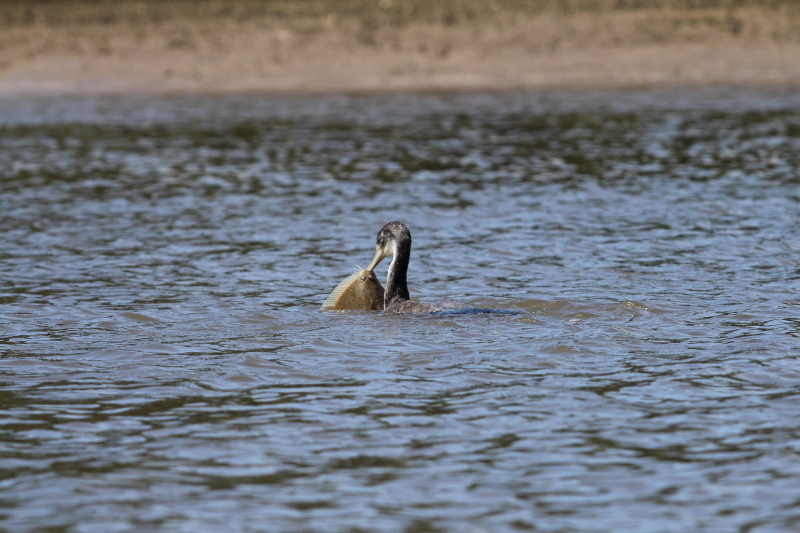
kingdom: Animalia
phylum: Chordata
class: Aves
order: Suliformes
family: Phalacrocoracidae
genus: Phalacrocorax
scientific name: Phalacrocorax varius
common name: Pied cormorant
